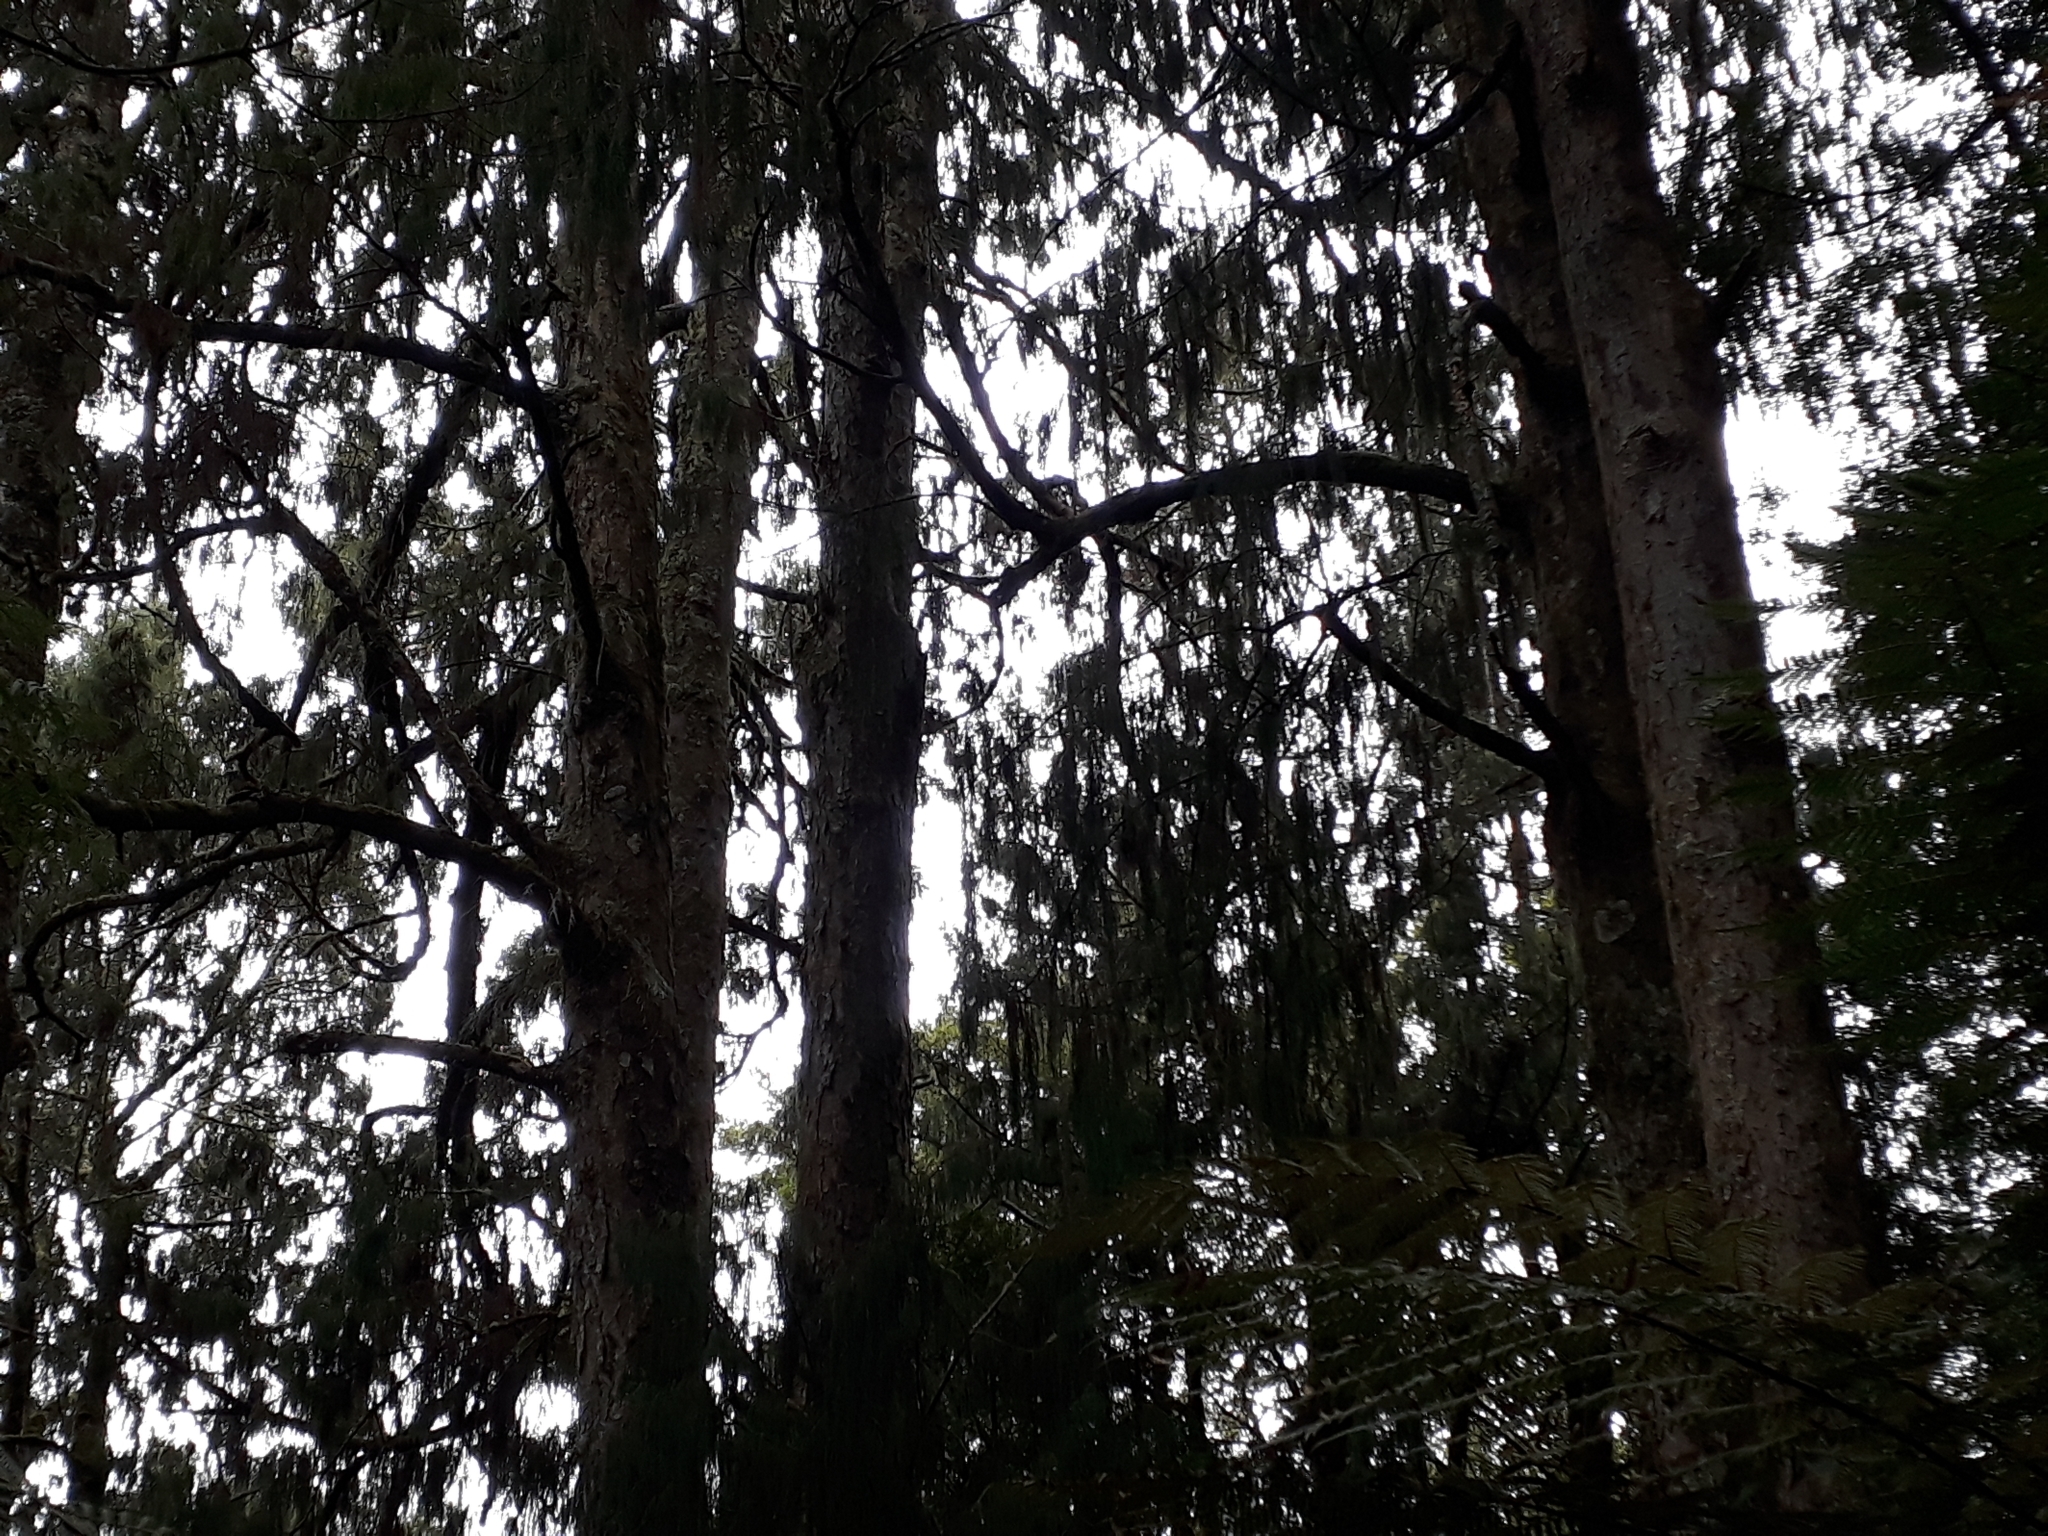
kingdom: Plantae
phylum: Tracheophyta
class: Pinopsida
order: Pinales
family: Podocarpaceae
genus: Dacrydium
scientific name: Dacrydium cupressinum
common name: Red pine
